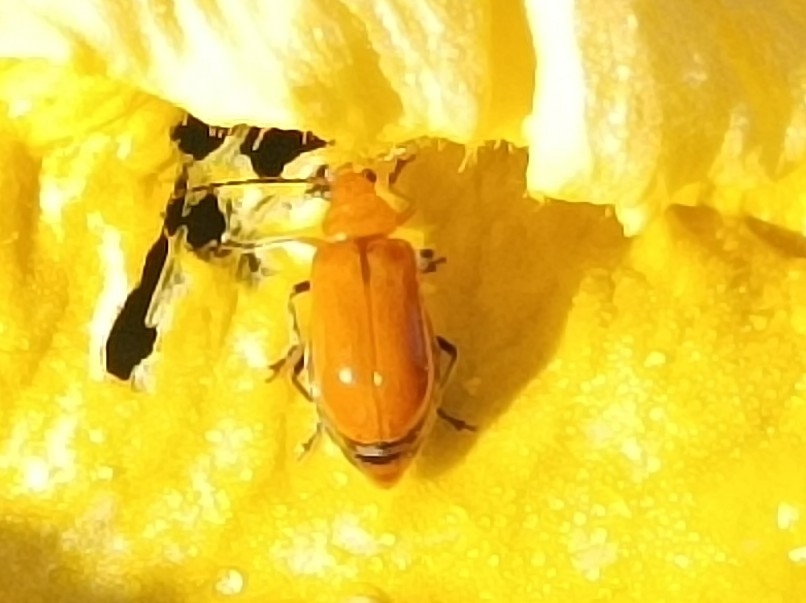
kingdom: Animalia
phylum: Arthropoda
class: Insecta
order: Coleoptera
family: Chrysomelidae
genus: Aulacophora
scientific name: Aulacophora indica
